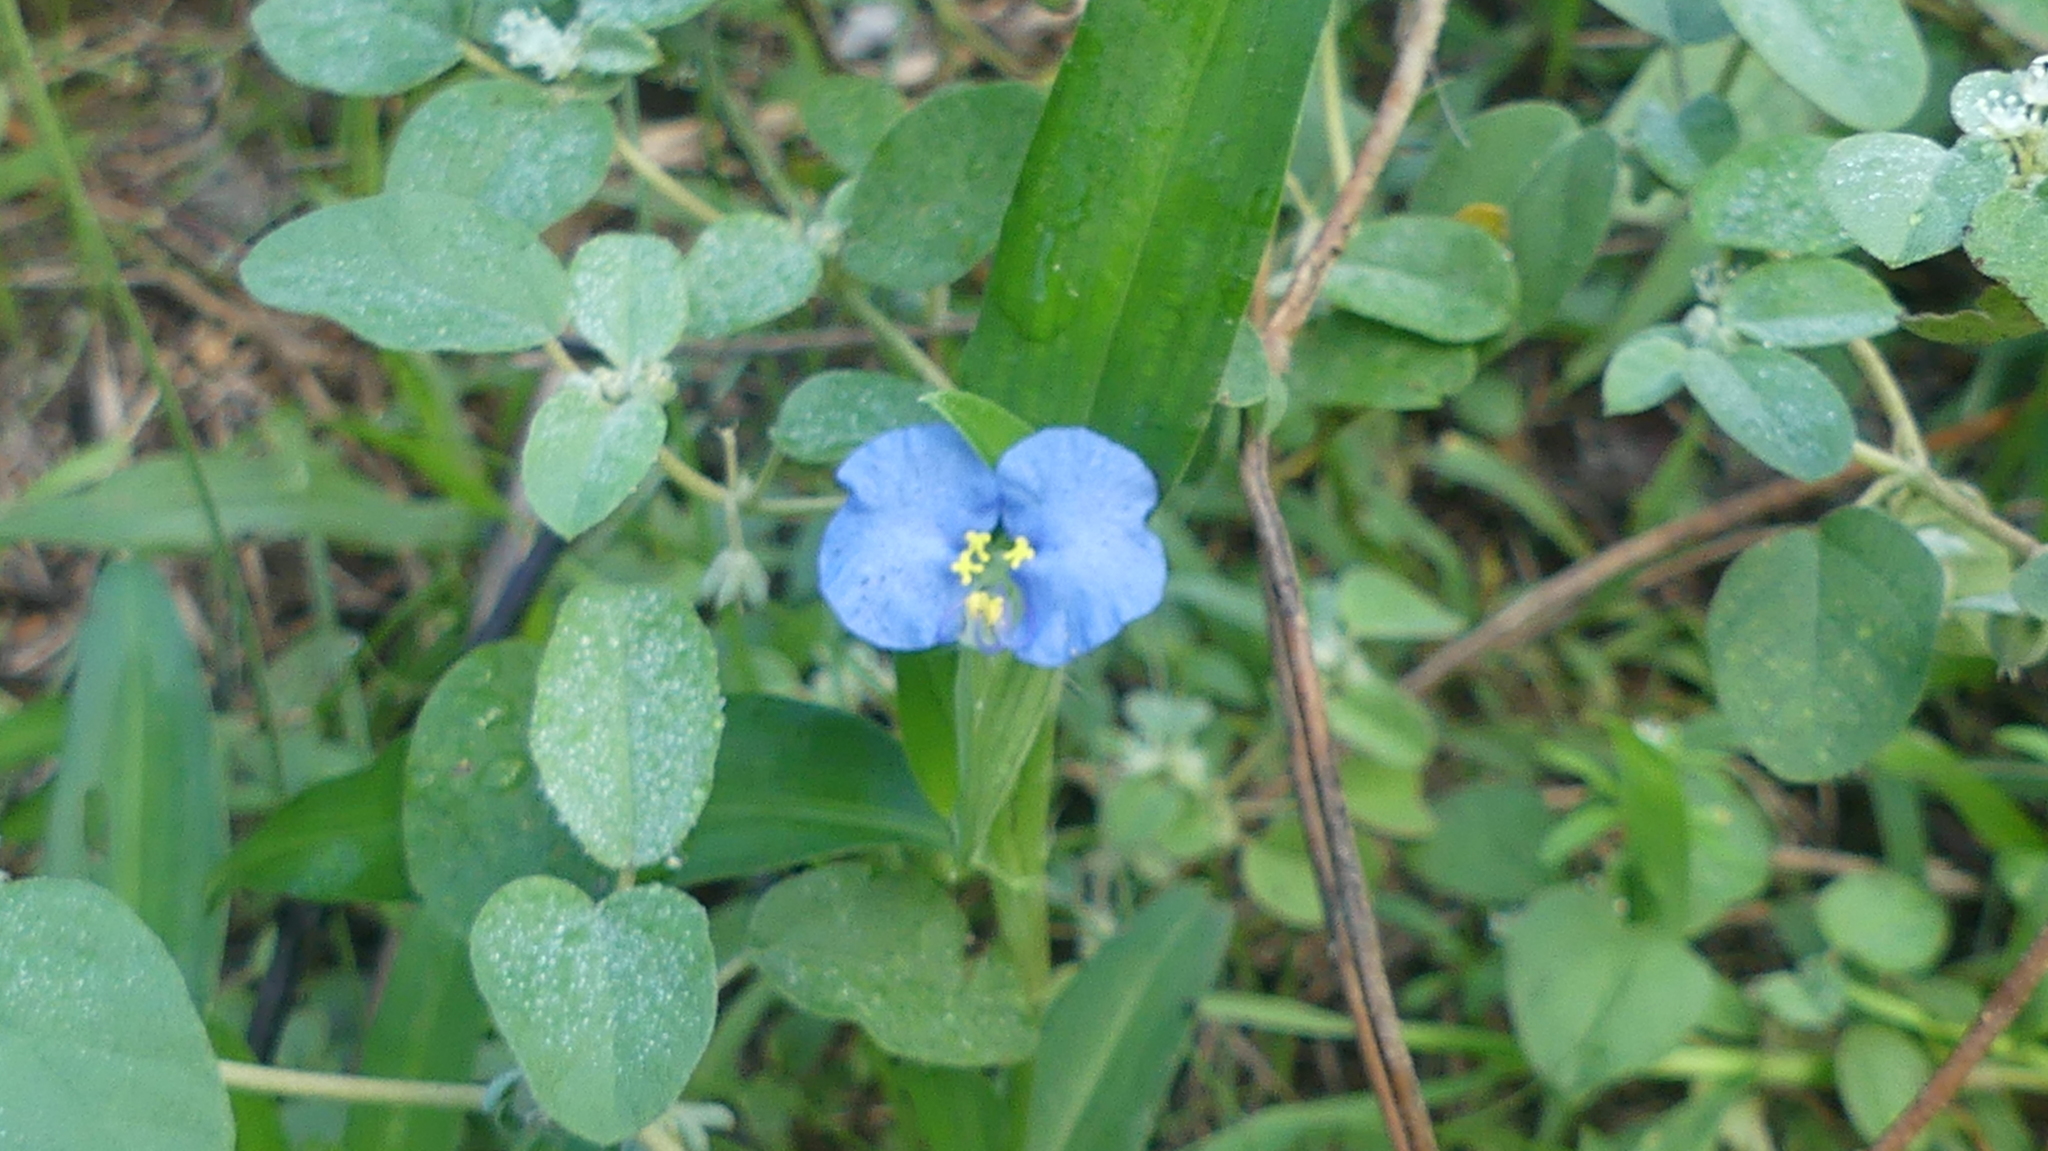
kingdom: Plantae
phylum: Tracheophyta
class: Liliopsida
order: Commelinales
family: Commelinaceae
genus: Commelina
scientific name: Commelina erecta
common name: Blousel blommetjie
